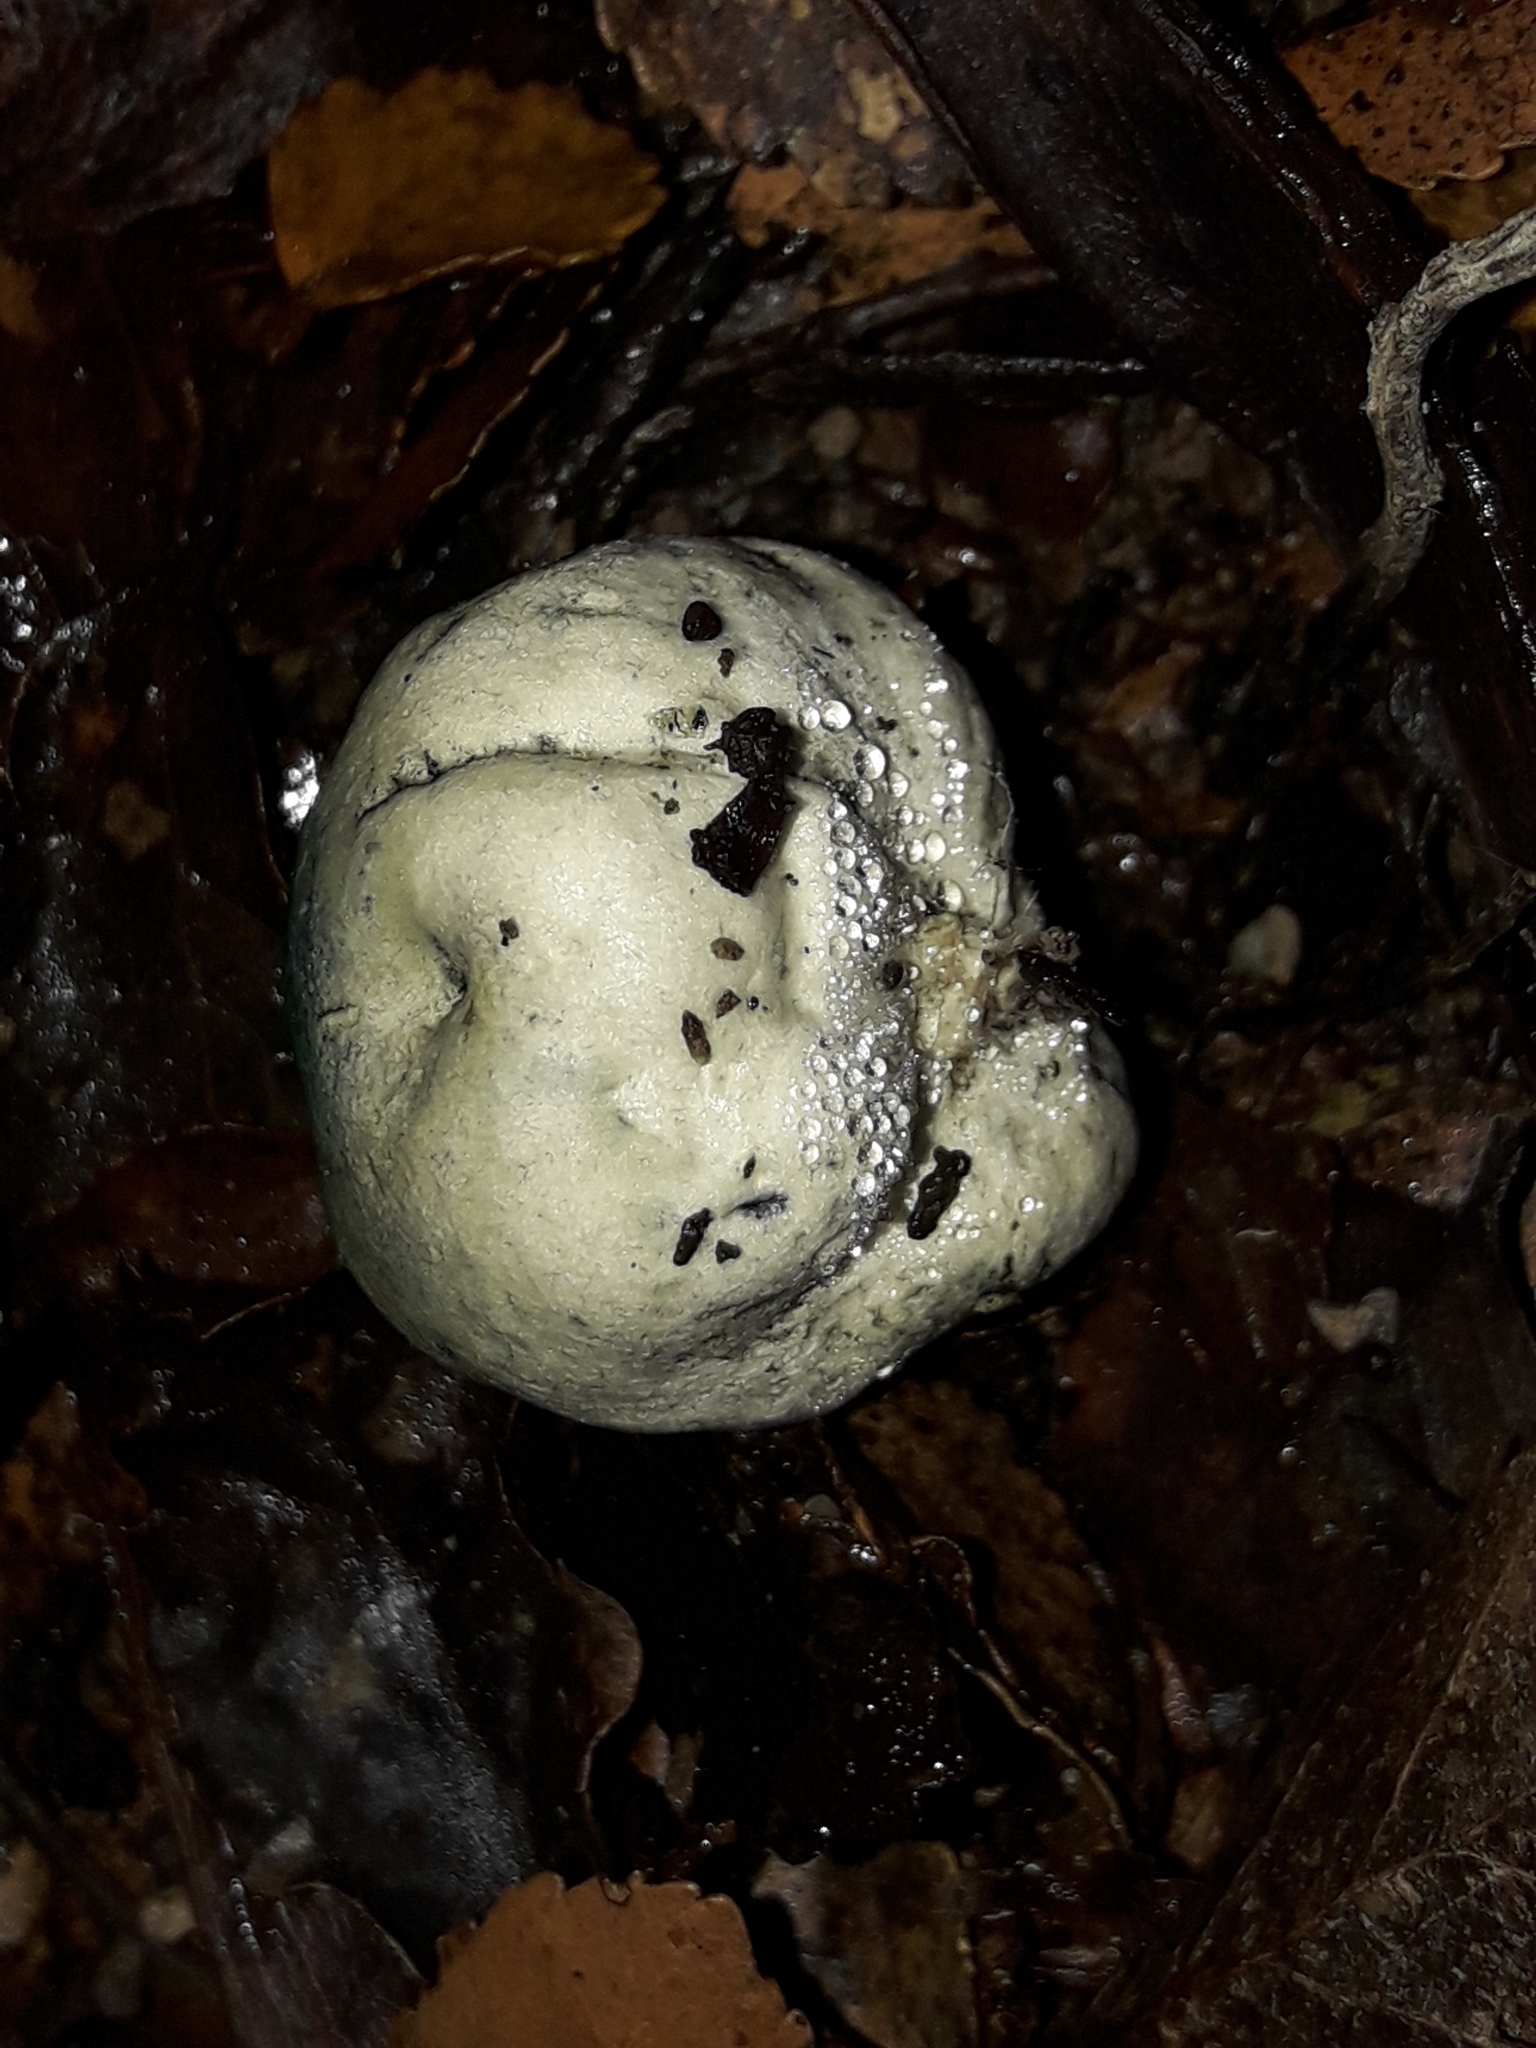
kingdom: Fungi
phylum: Basidiomycota
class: Agaricomycetes
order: Boletales
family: Boletaceae
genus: Leccinum
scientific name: Leccinum pachyderme
